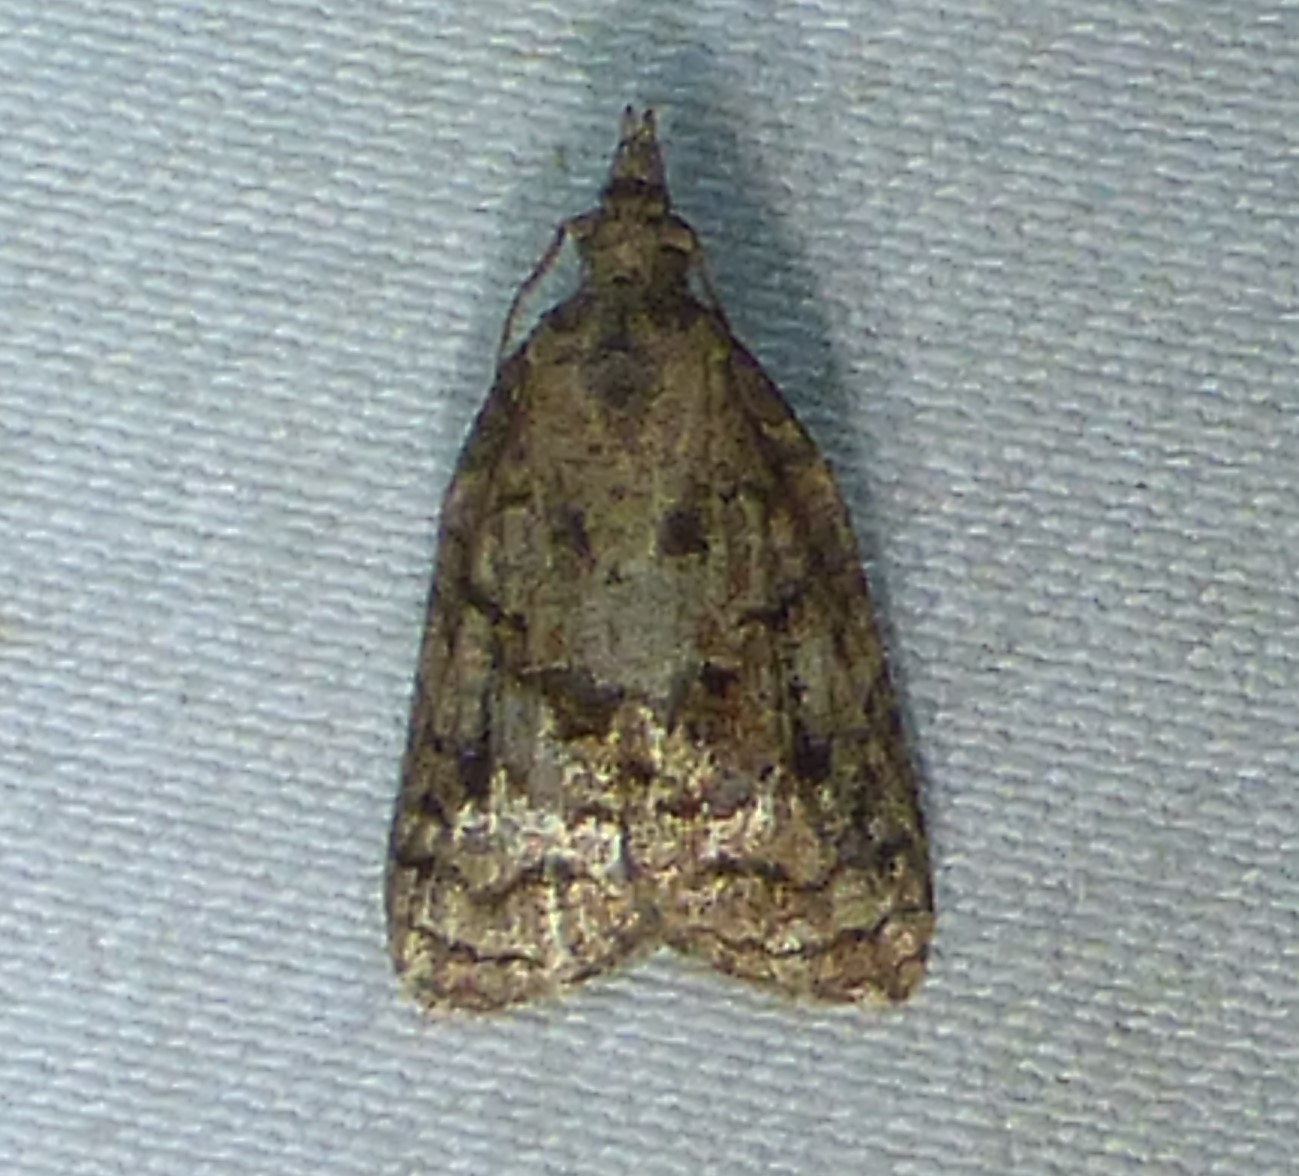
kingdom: Animalia
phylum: Arthropoda
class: Insecta
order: Lepidoptera
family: Tortricidae
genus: Platynota
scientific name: Platynota idaeusalis
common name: Tufted apple bud moth
